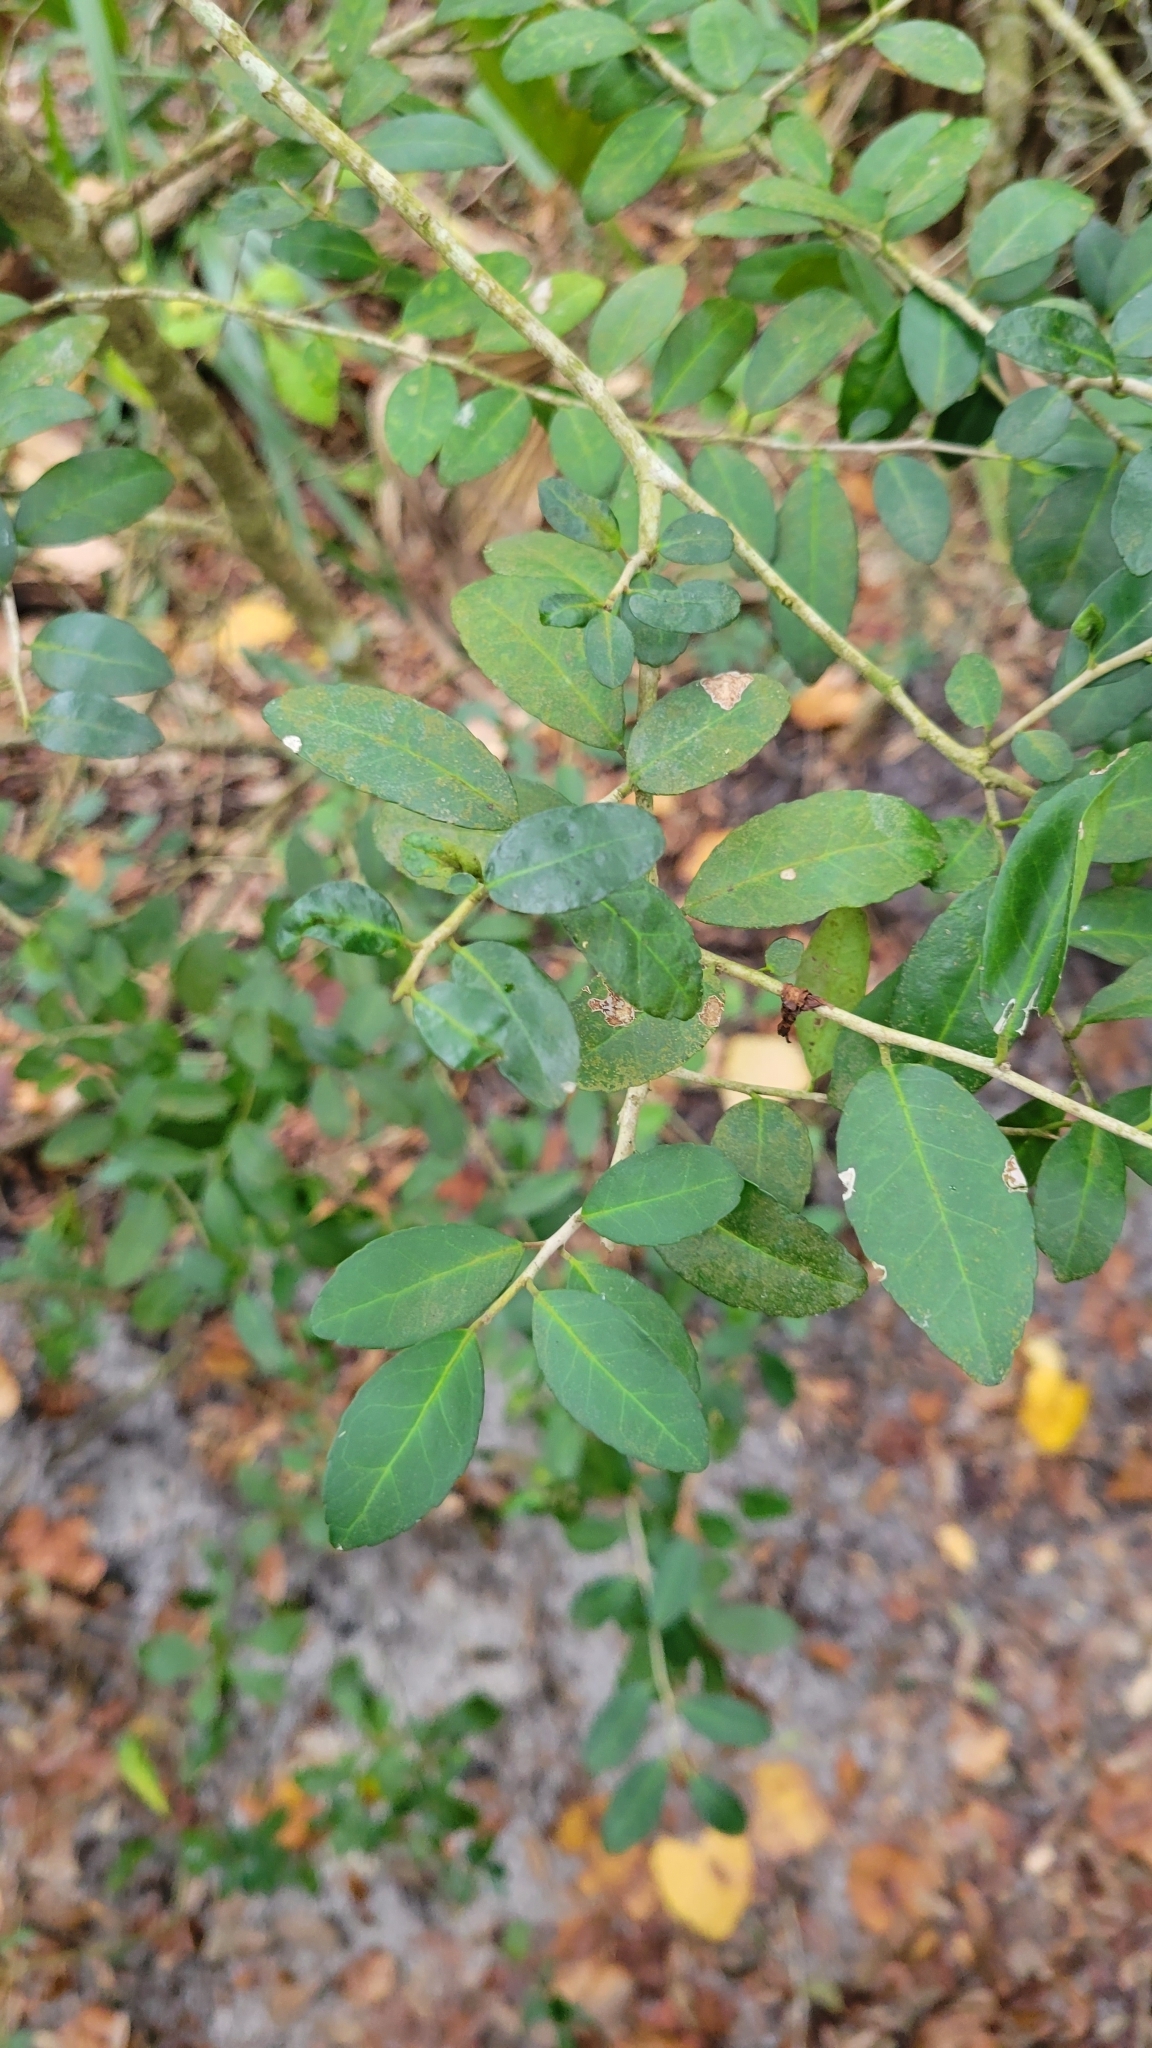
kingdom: Plantae
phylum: Tracheophyta
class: Magnoliopsida
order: Aquifoliales
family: Aquifoliaceae
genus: Ilex
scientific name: Ilex vomitoria
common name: Yaupon holly
